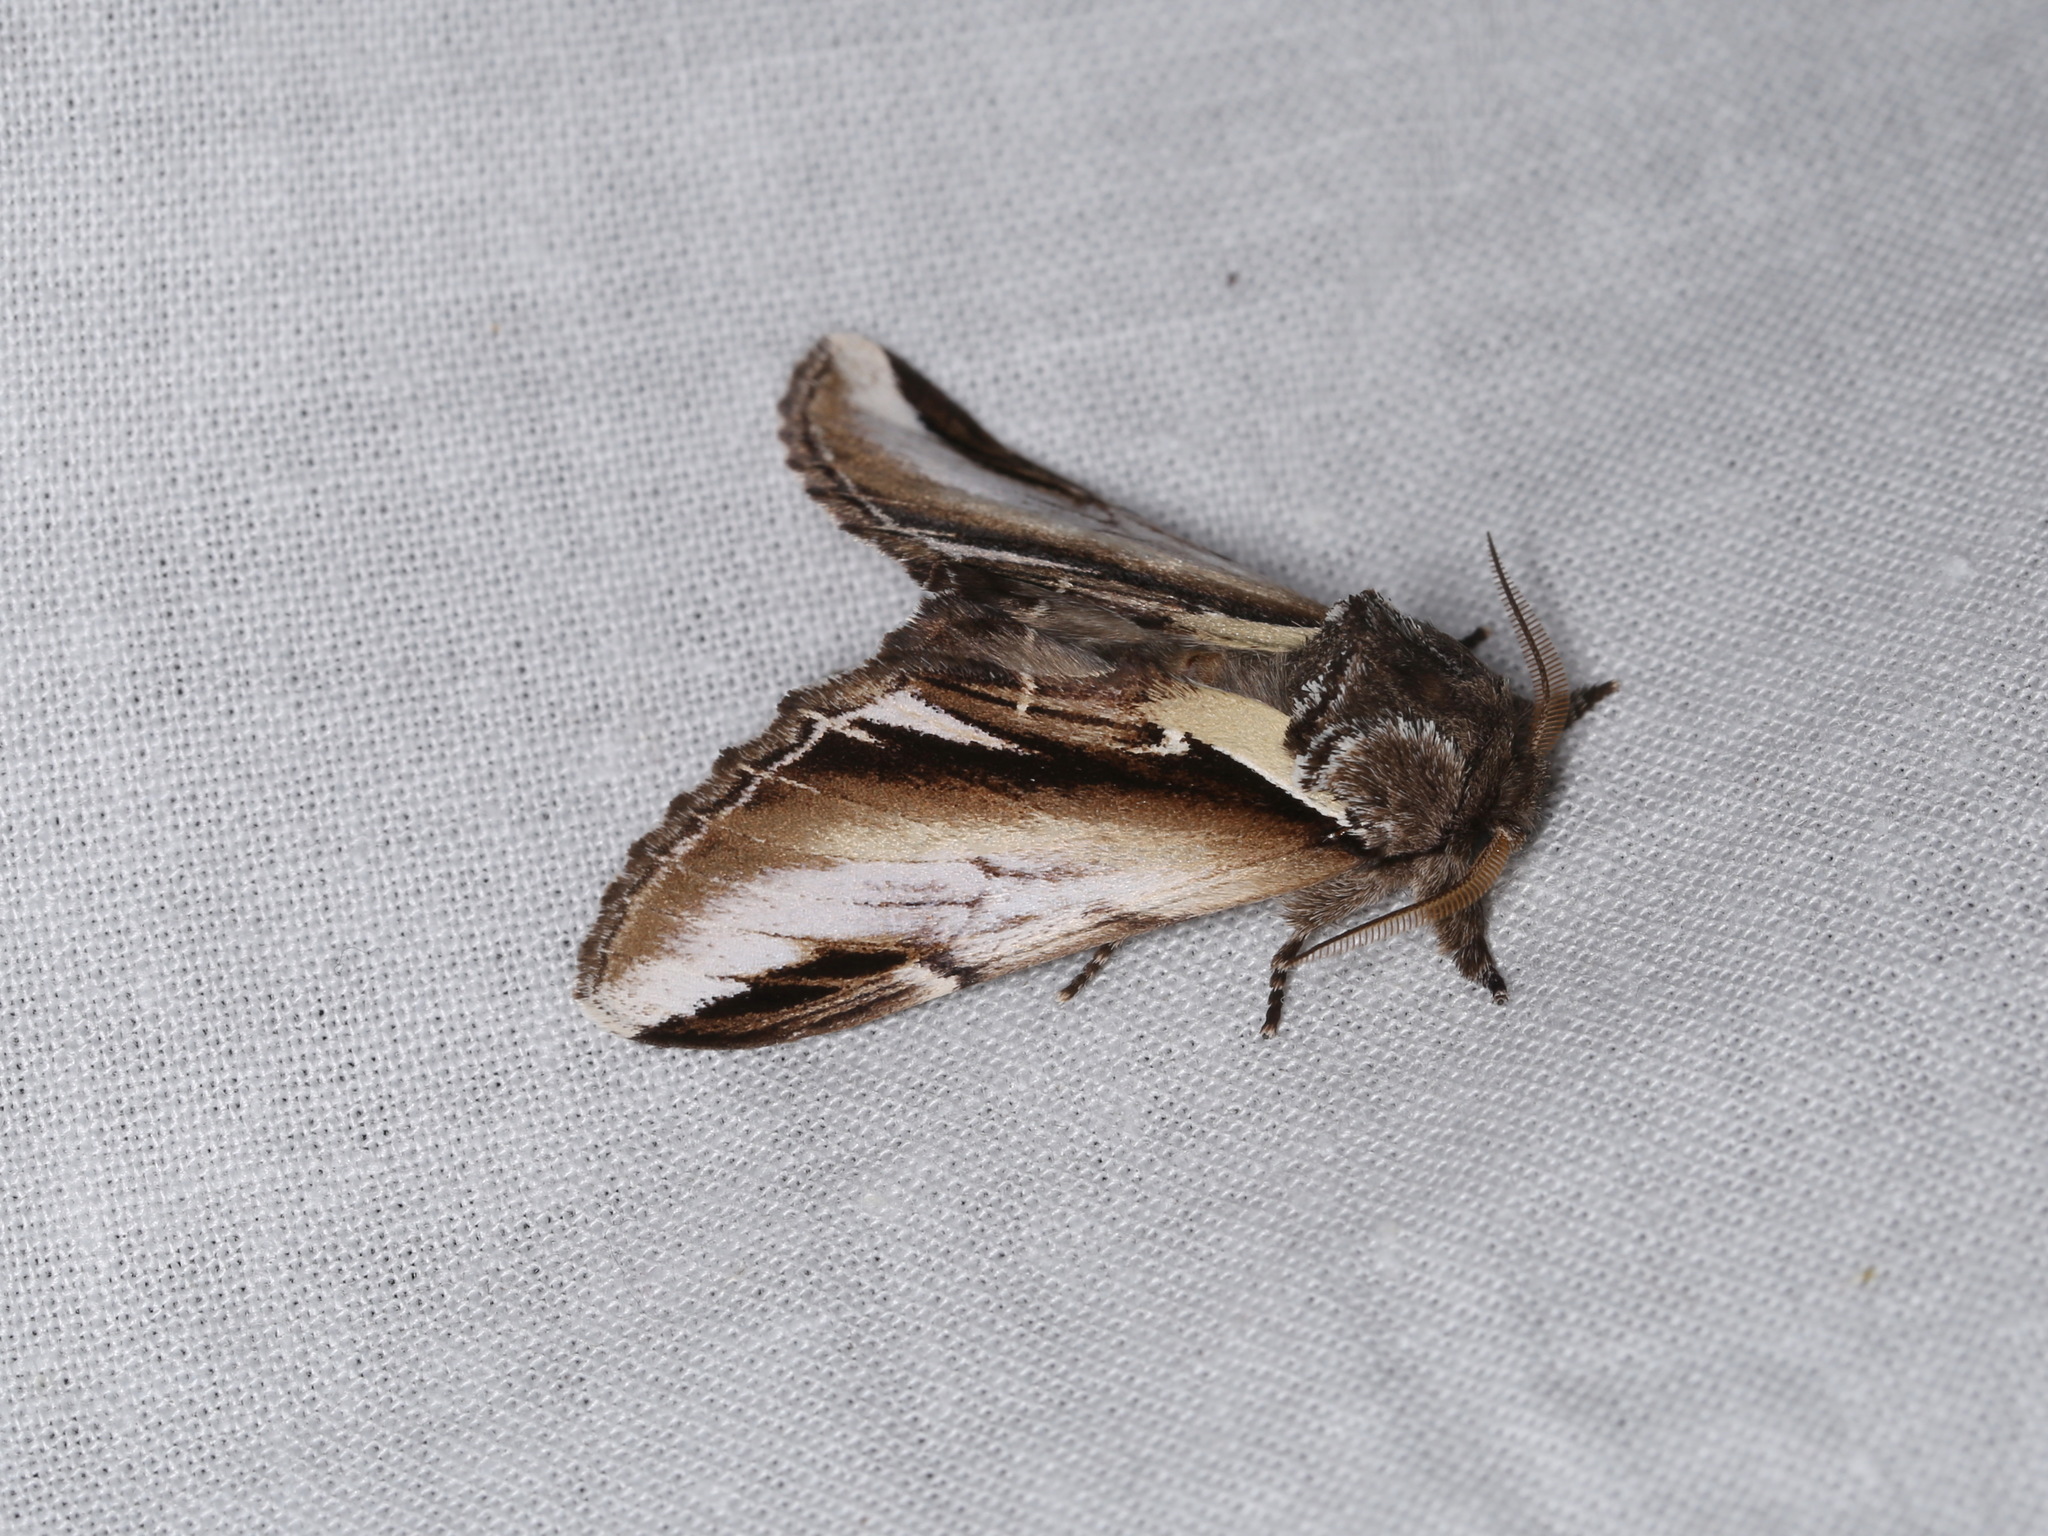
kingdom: Animalia
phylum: Arthropoda
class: Insecta
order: Lepidoptera
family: Notodontidae
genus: Pheosia
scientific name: Pheosia gnoma
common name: Lesser swallow prominent
